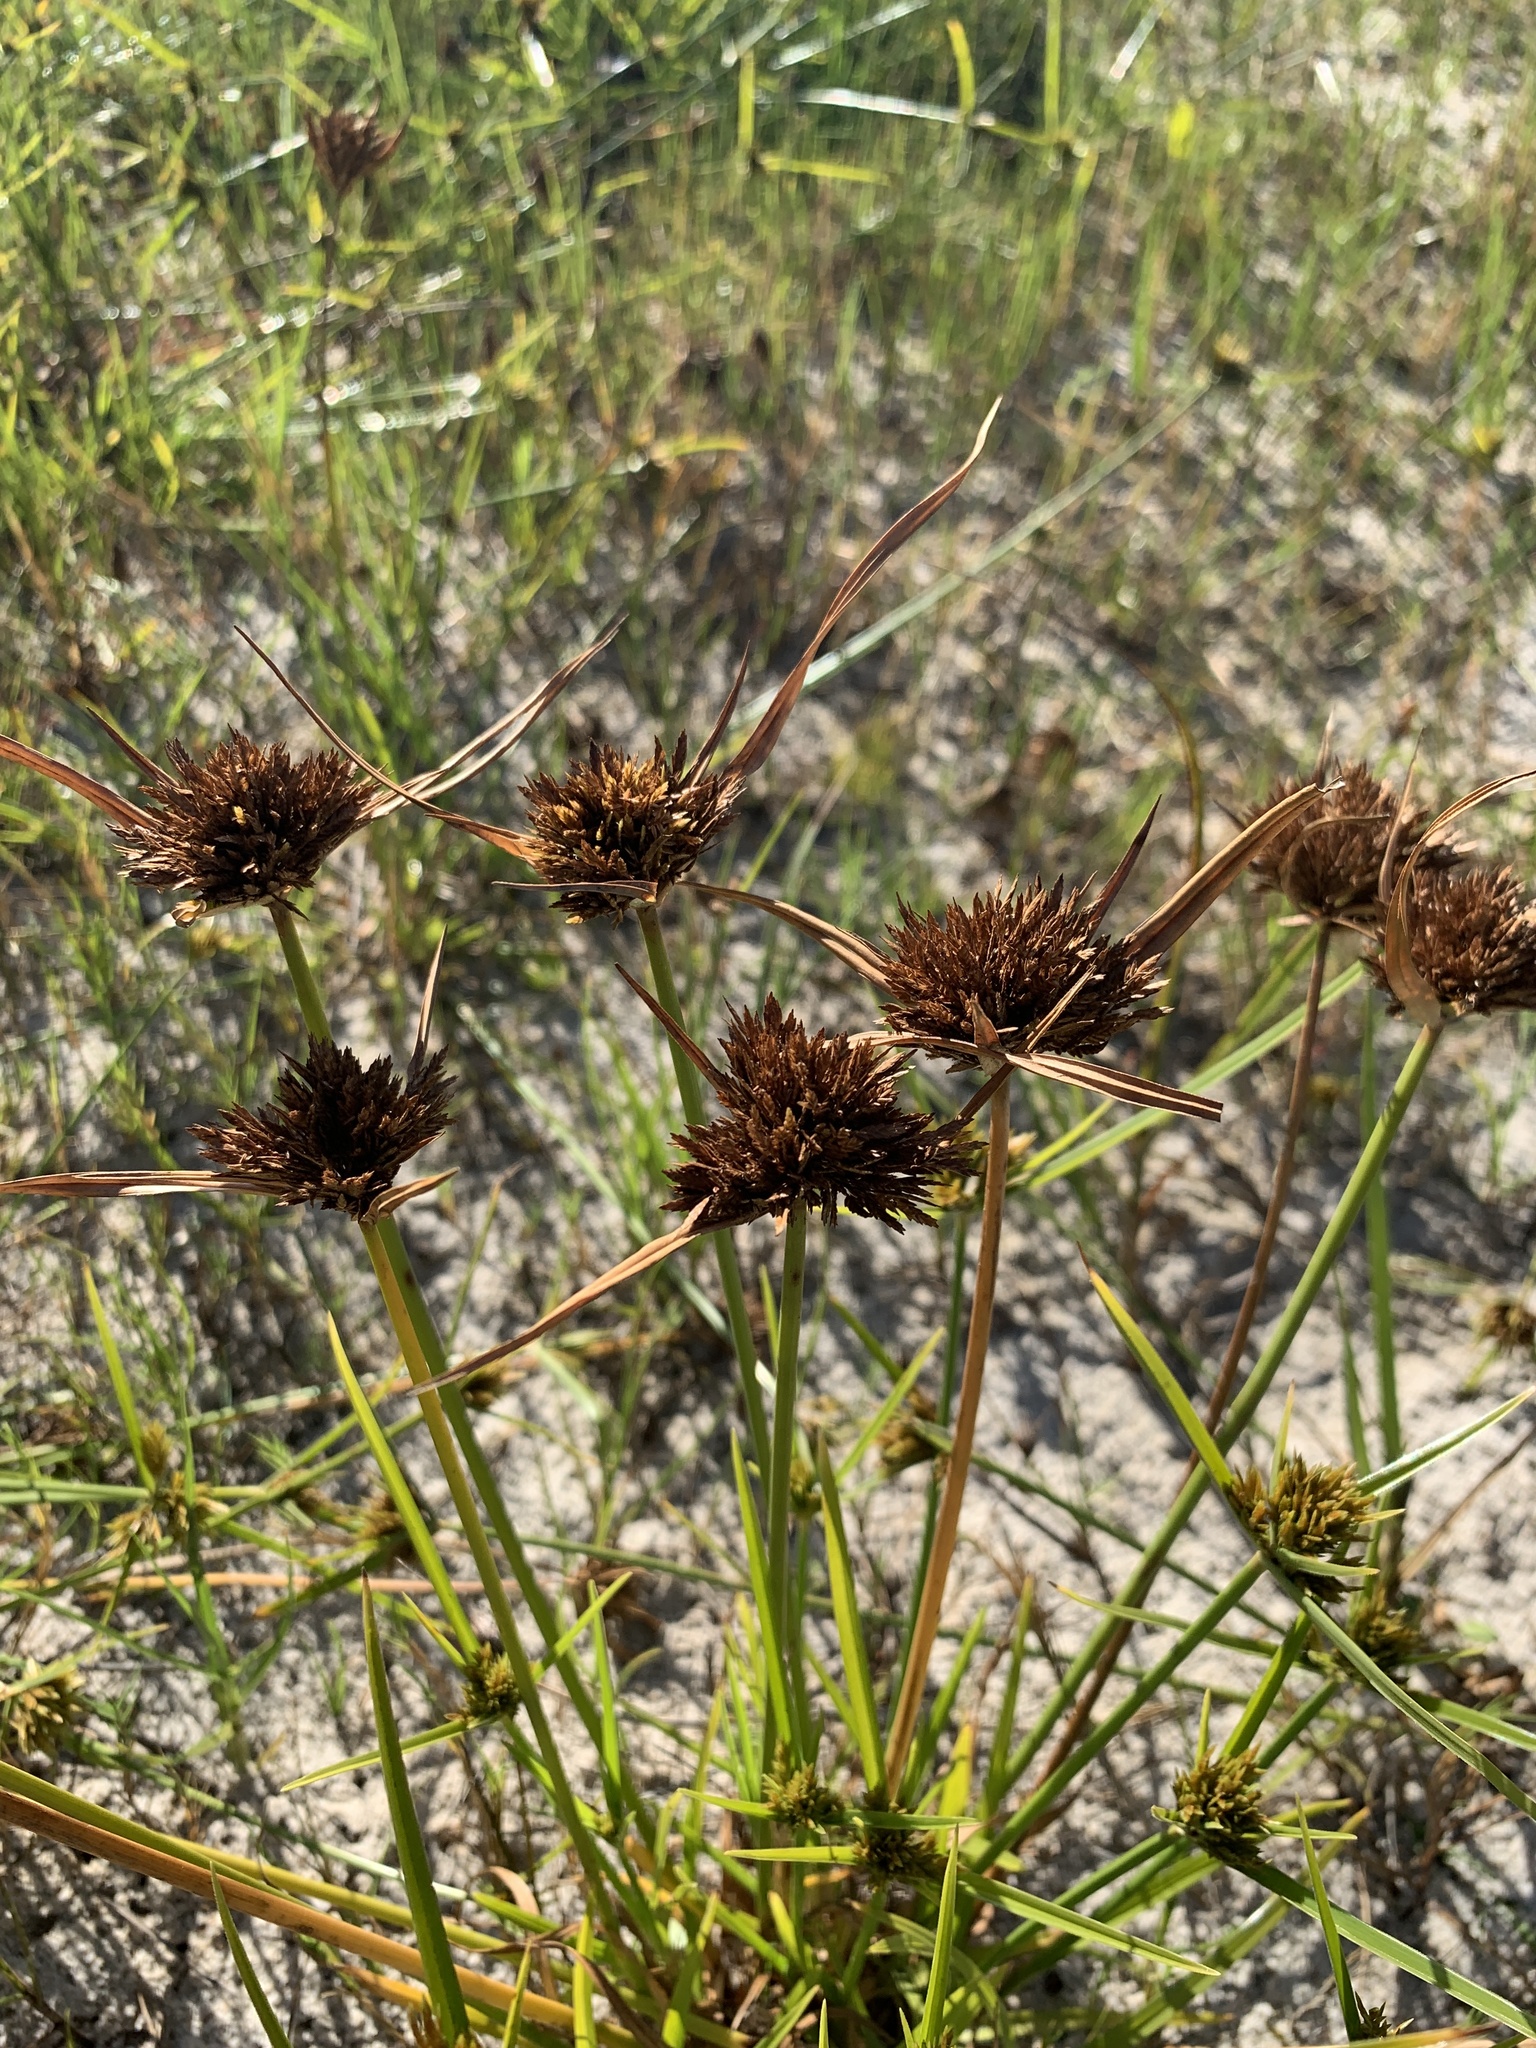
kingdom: Plantae
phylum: Tracheophyta
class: Liliopsida
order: Poales
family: Cyperaceae
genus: Cyperus
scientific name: Cyperus polystachyos
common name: Bunchy flat sedge
